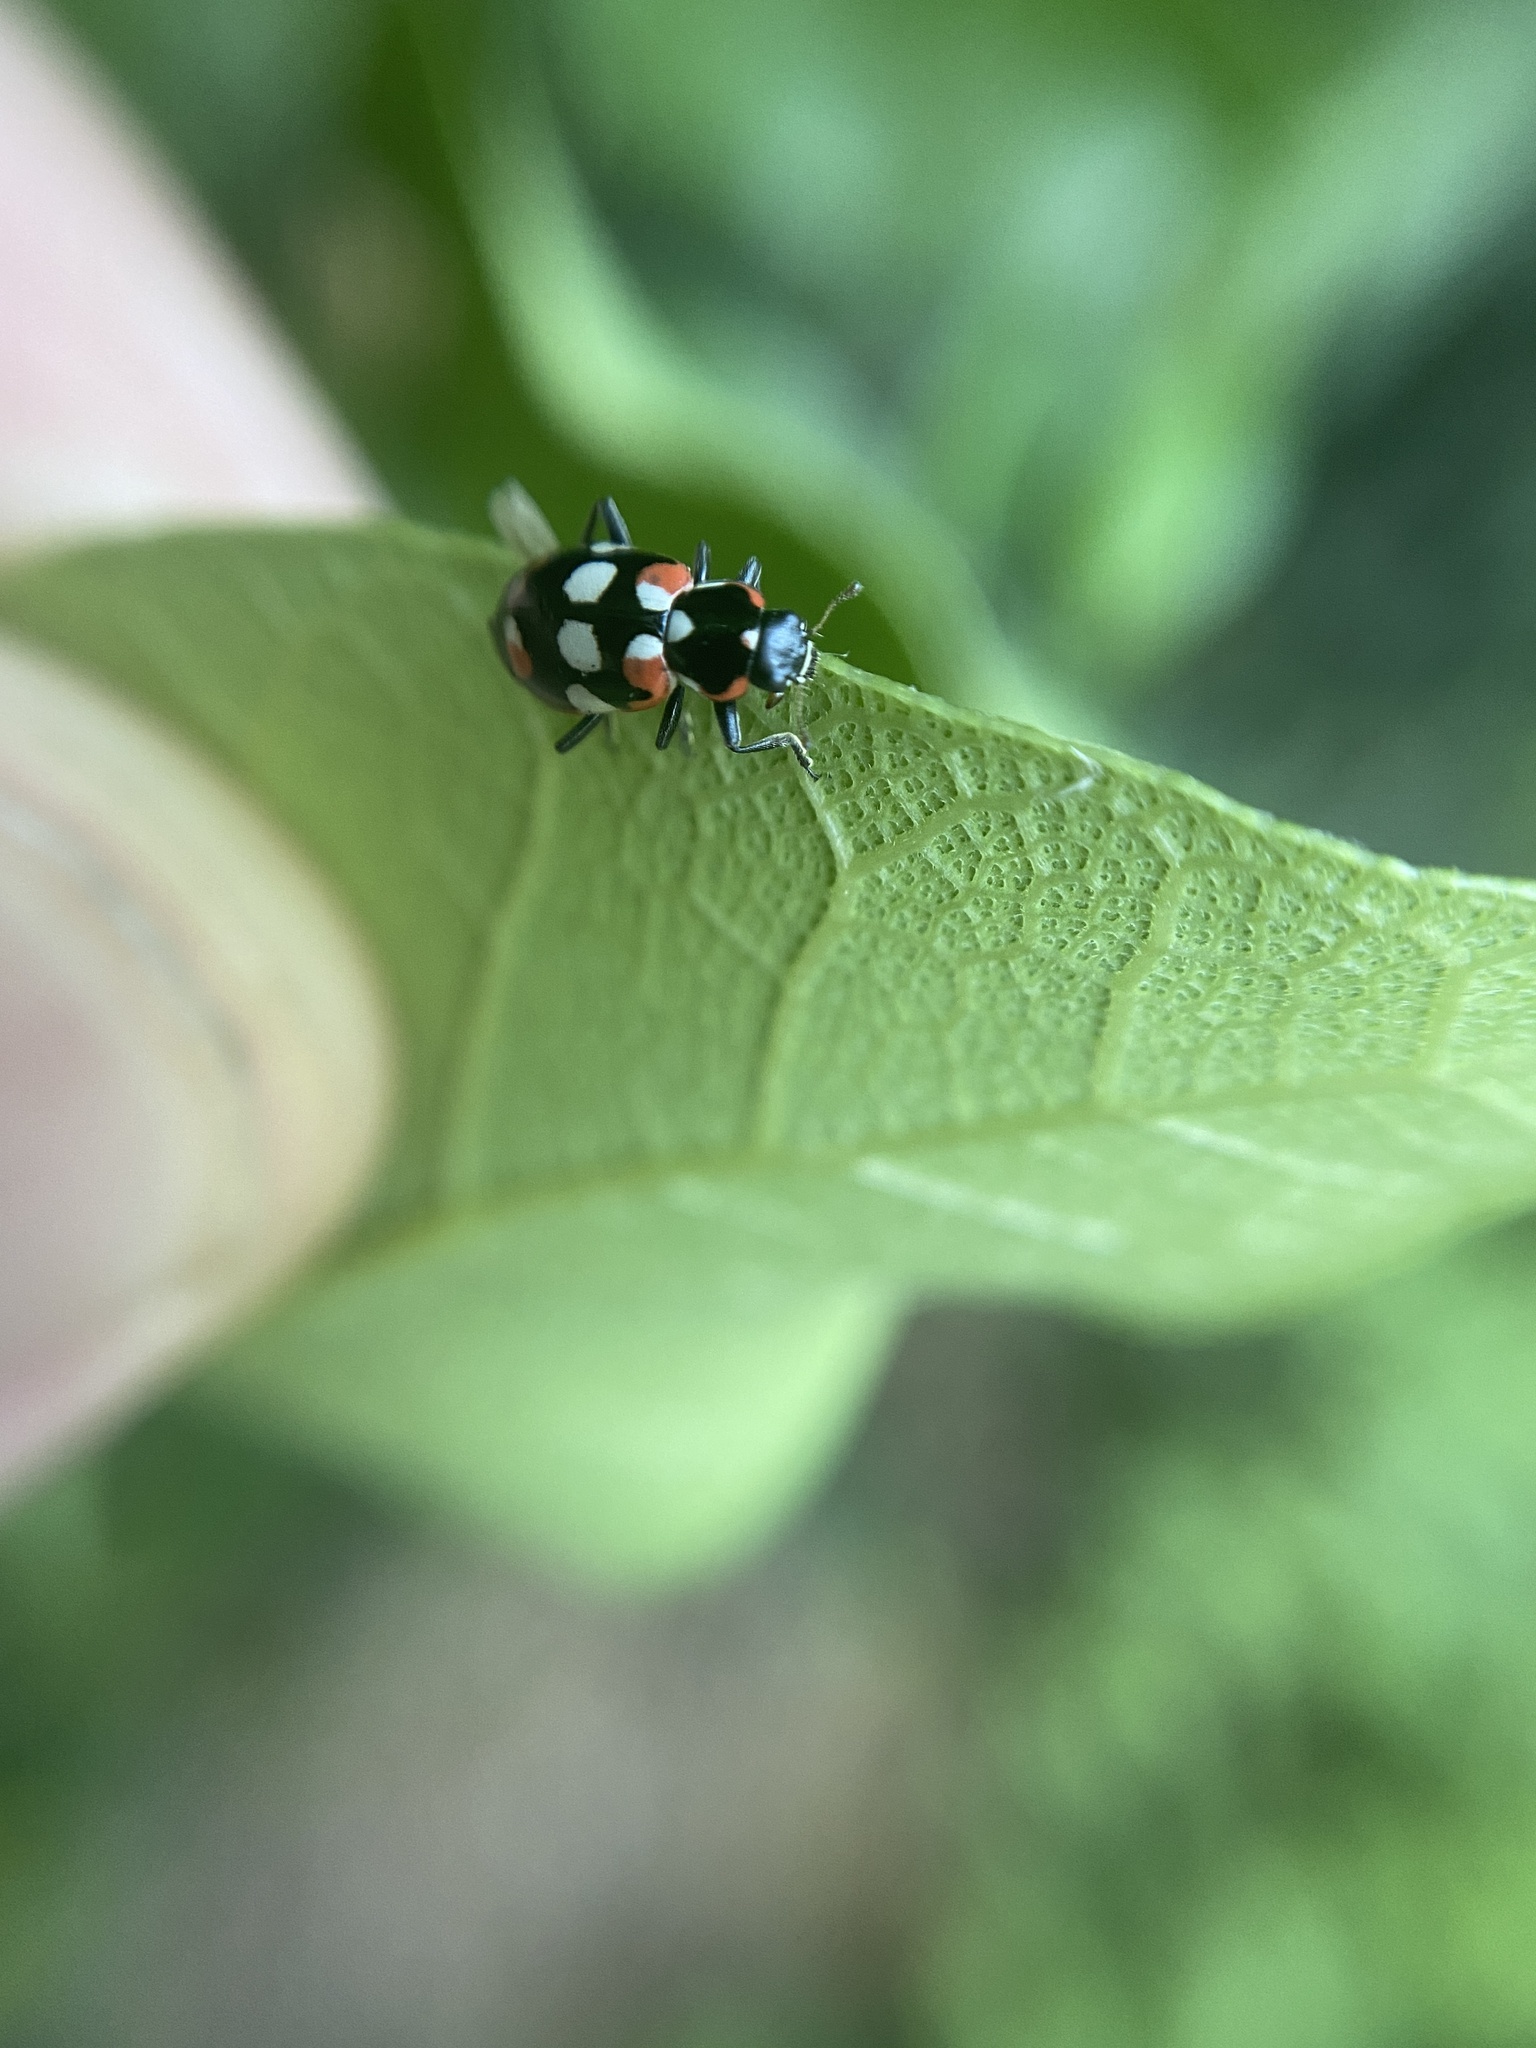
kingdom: Animalia
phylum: Arthropoda
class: Insecta
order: Coleoptera
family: Coccinellidae
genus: Eriopis
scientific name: Eriopis connexa
